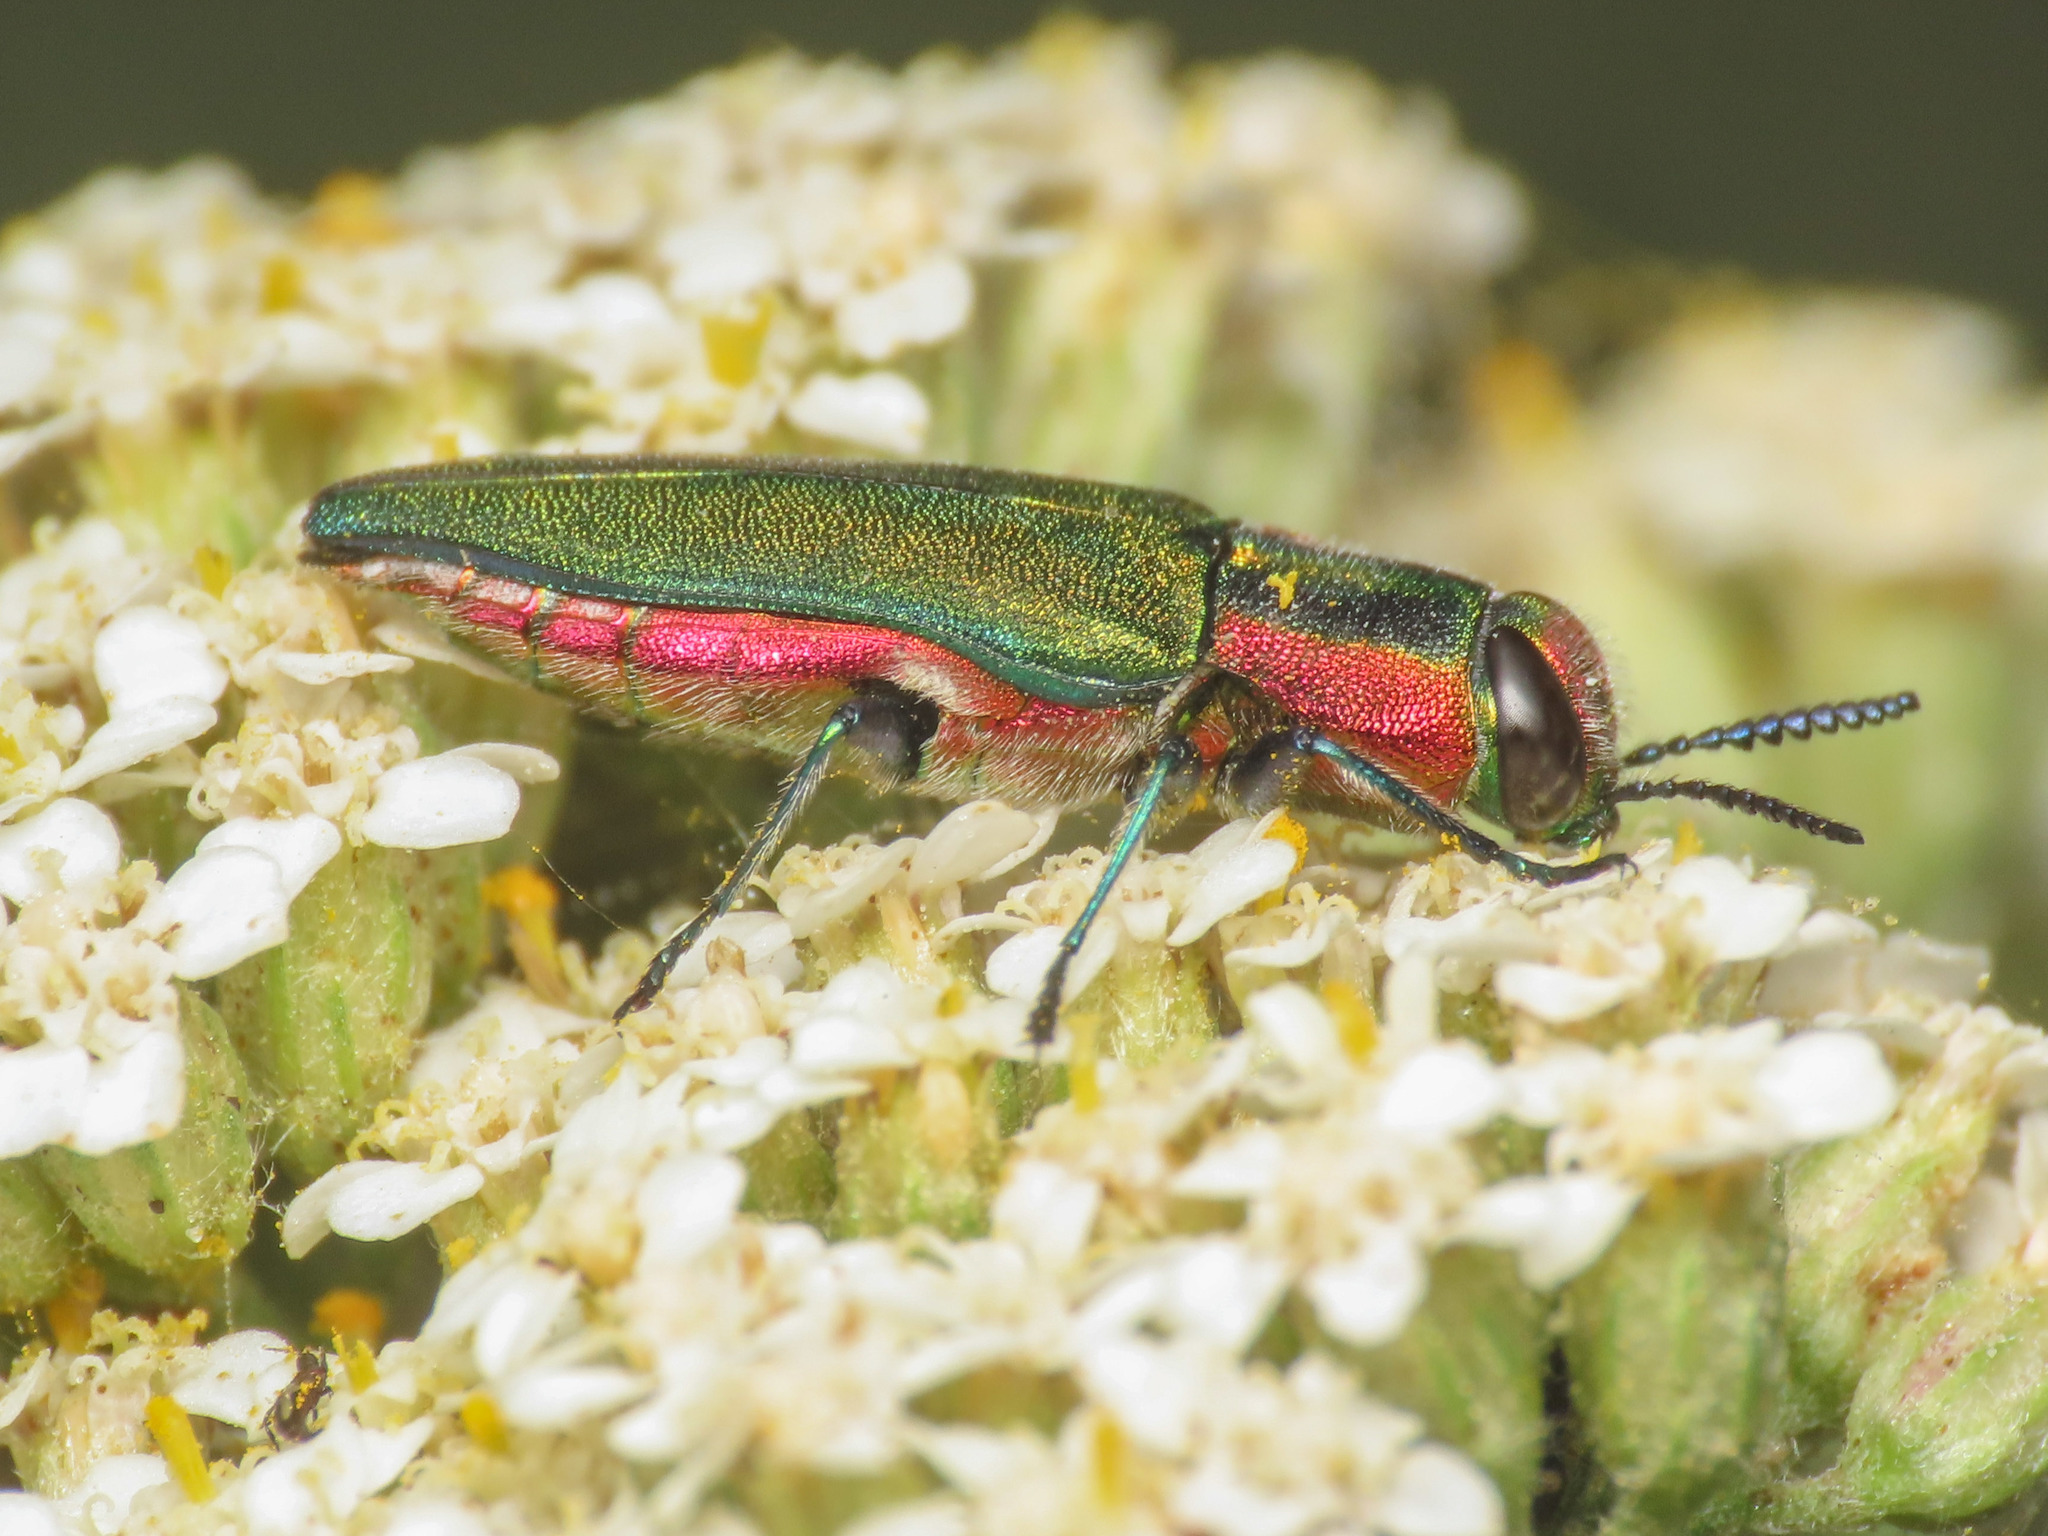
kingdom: Animalia
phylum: Arthropoda
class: Insecta
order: Coleoptera
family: Buprestidae
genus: Anthaxia
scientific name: Anthaxia hungarica
